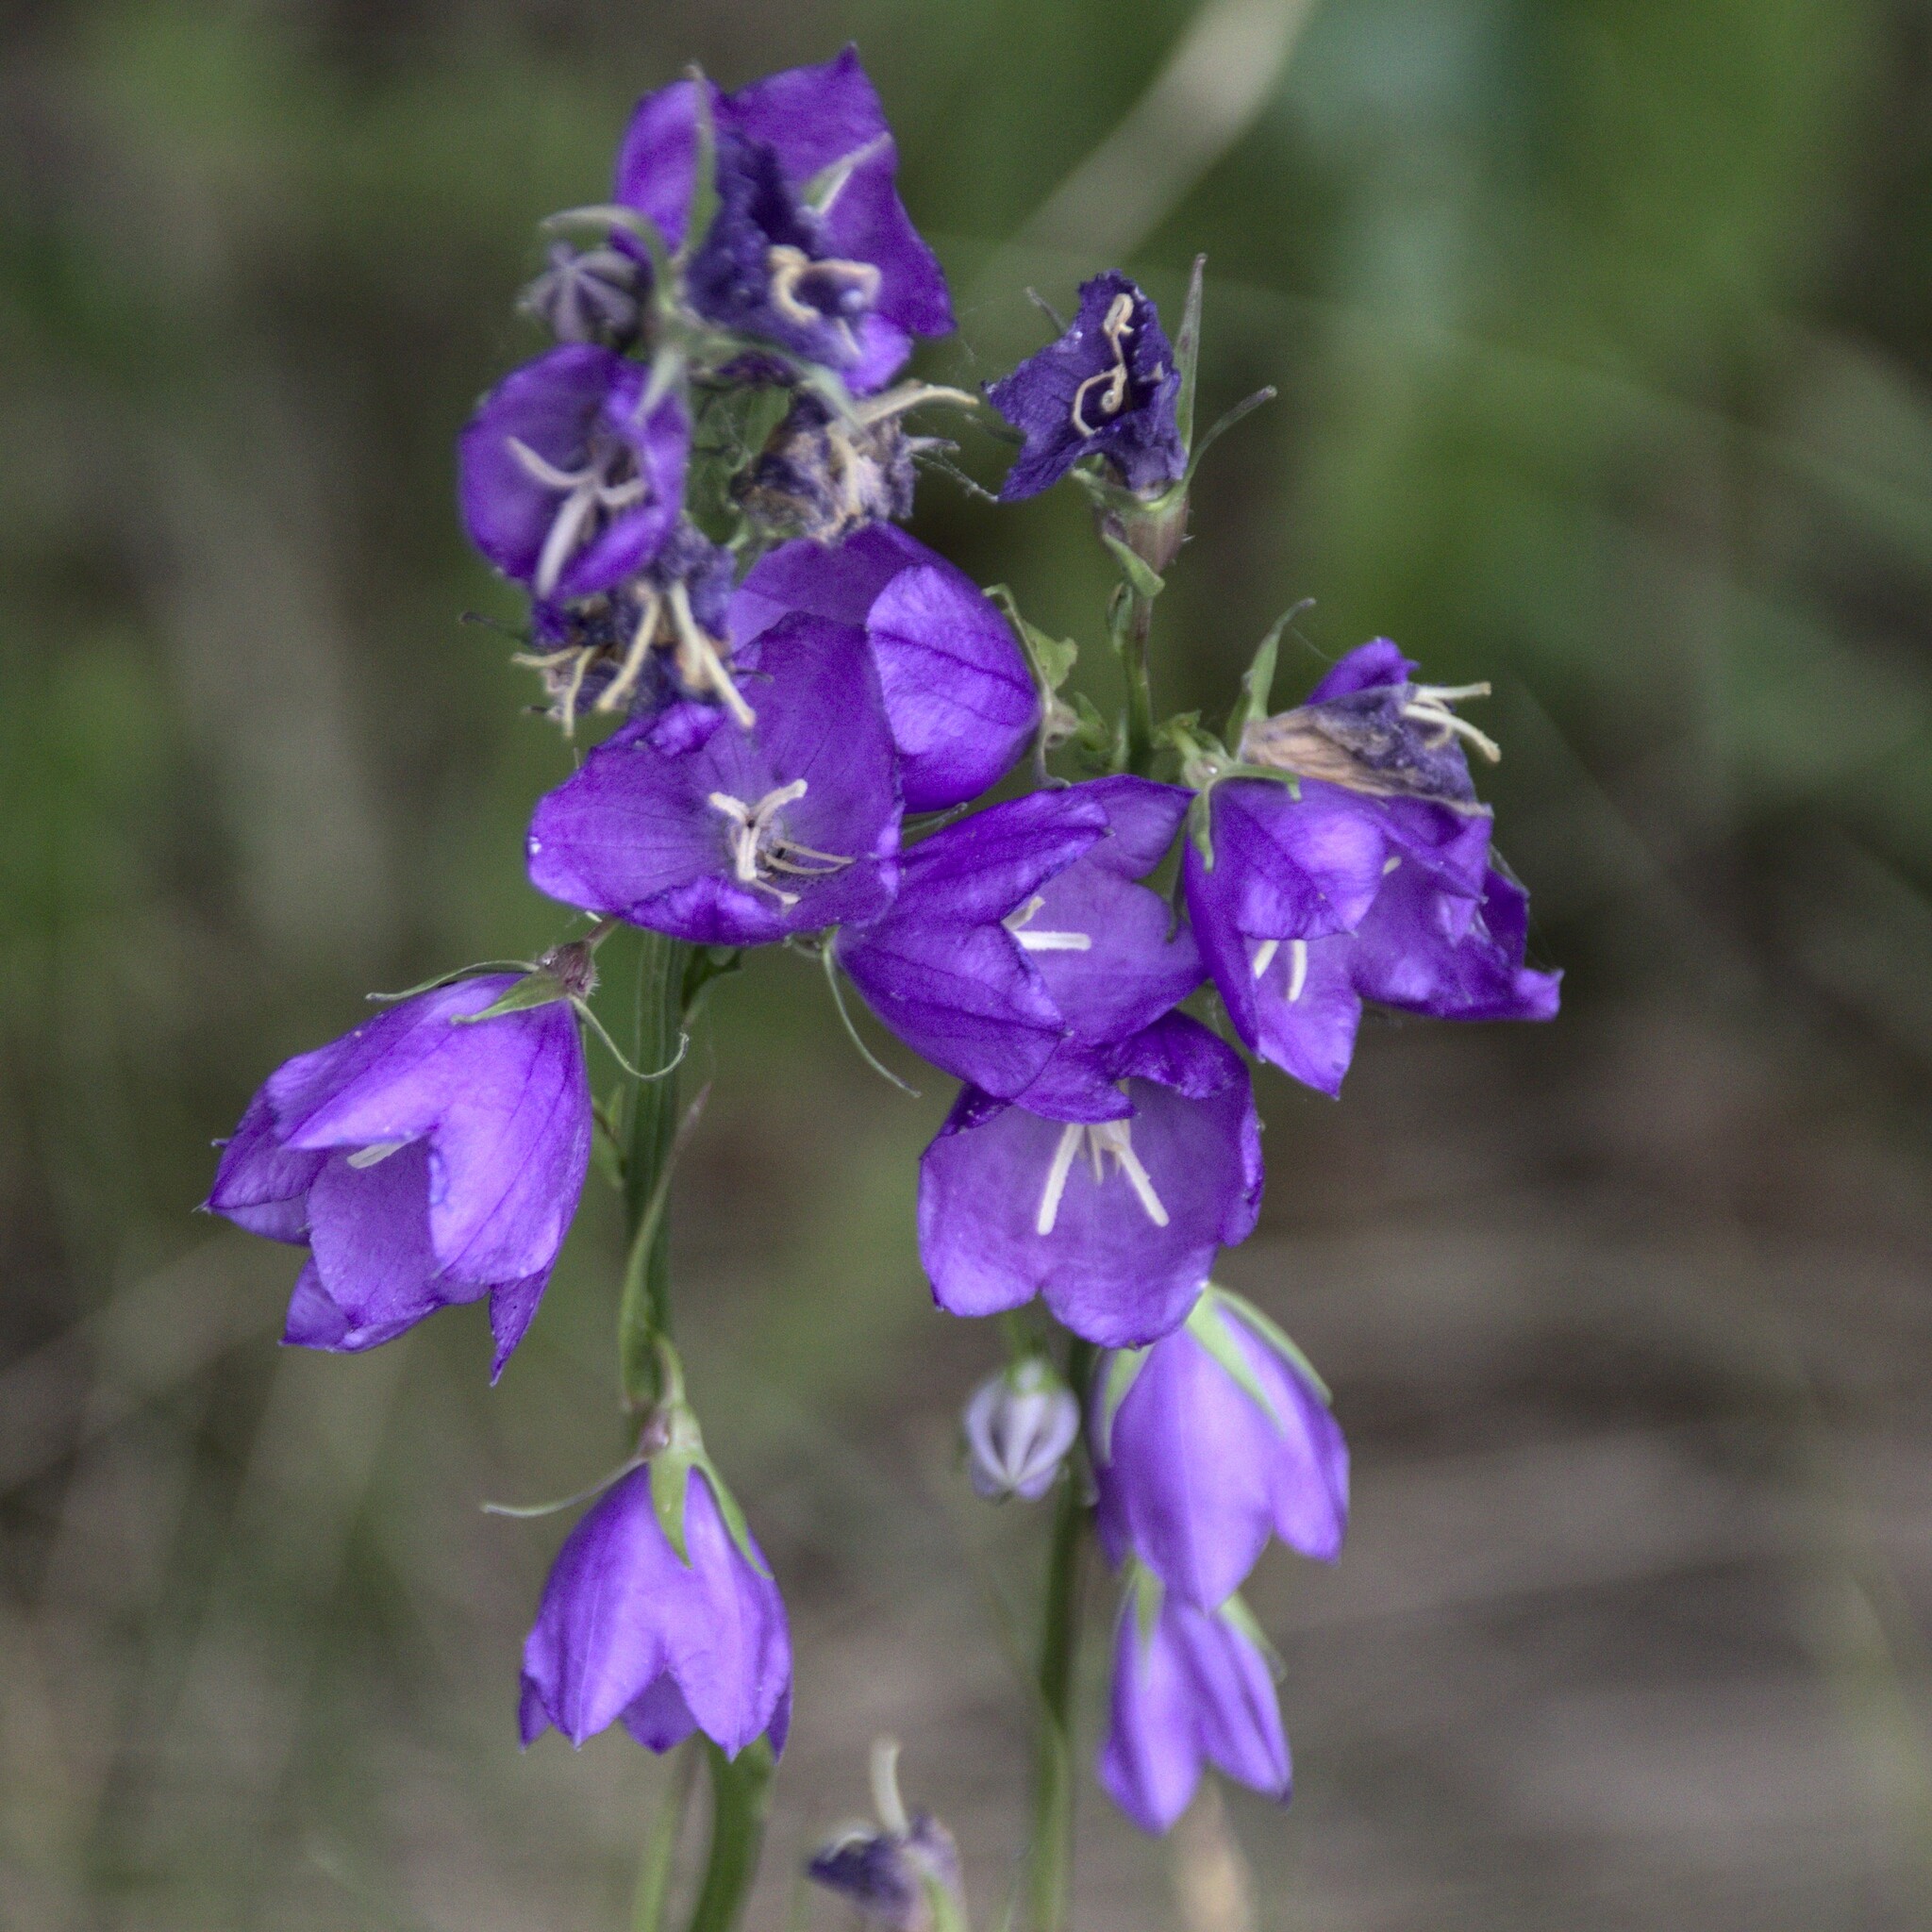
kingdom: Plantae
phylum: Tracheophyta
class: Magnoliopsida
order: Asterales
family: Campanulaceae
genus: Campanula
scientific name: Campanula persicifolia
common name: Peach-leaved bellflower
